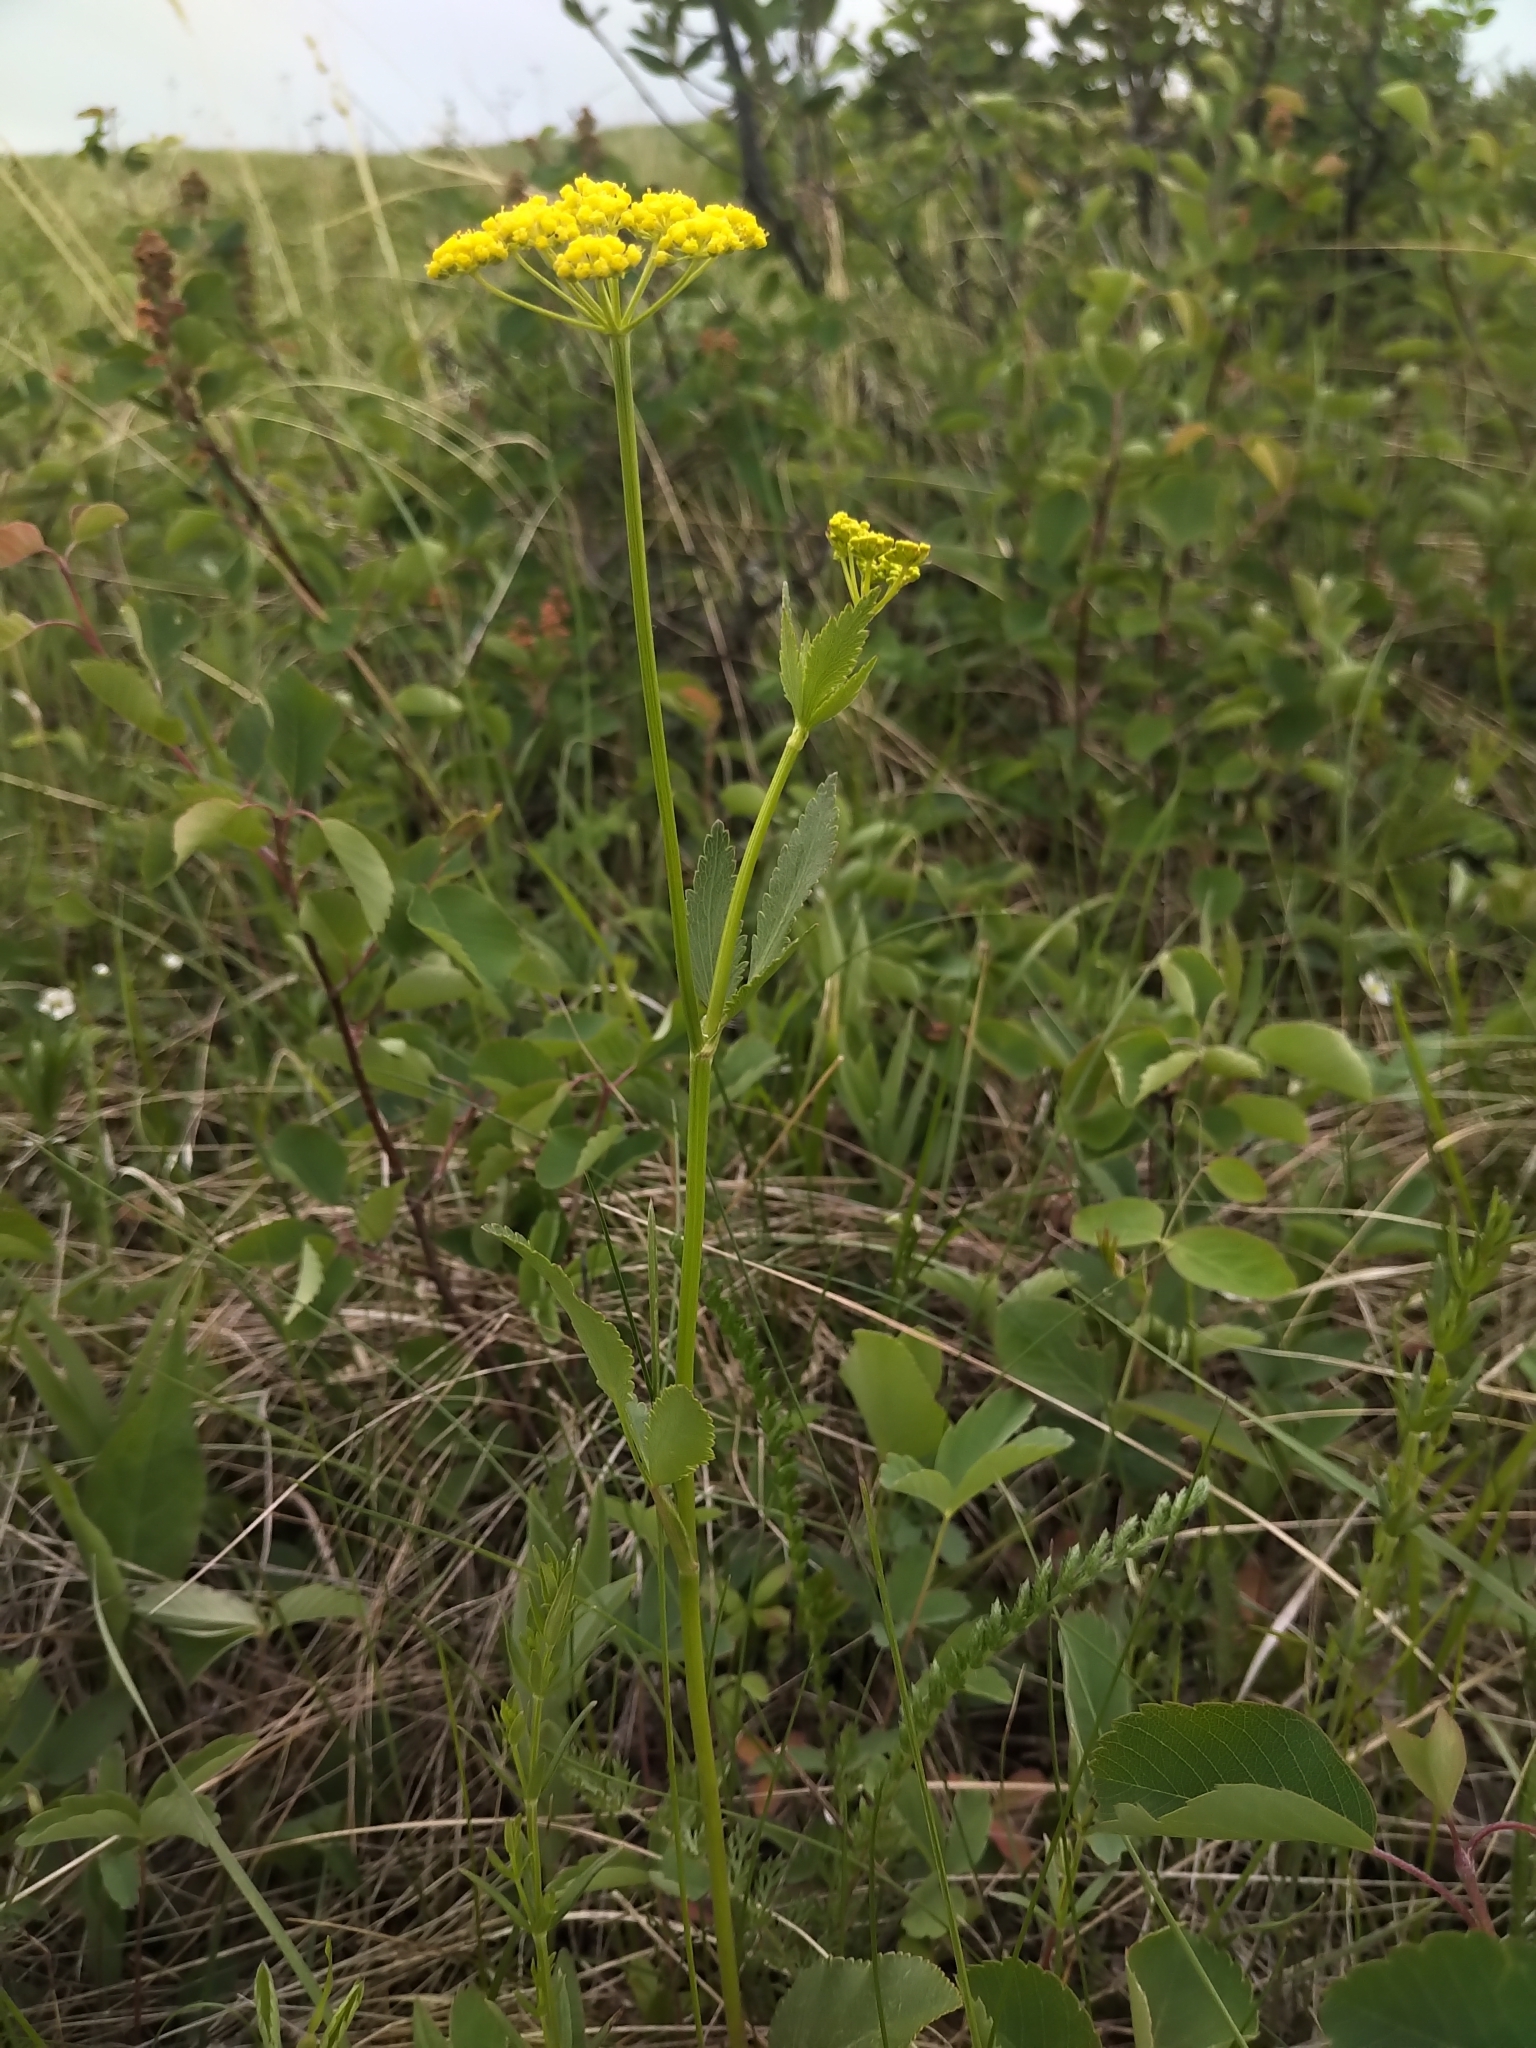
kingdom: Plantae
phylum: Tracheophyta
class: Magnoliopsida
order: Apiales
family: Apiaceae
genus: Zizia
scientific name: Zizia aptera
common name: Heart-leaved alexanders
